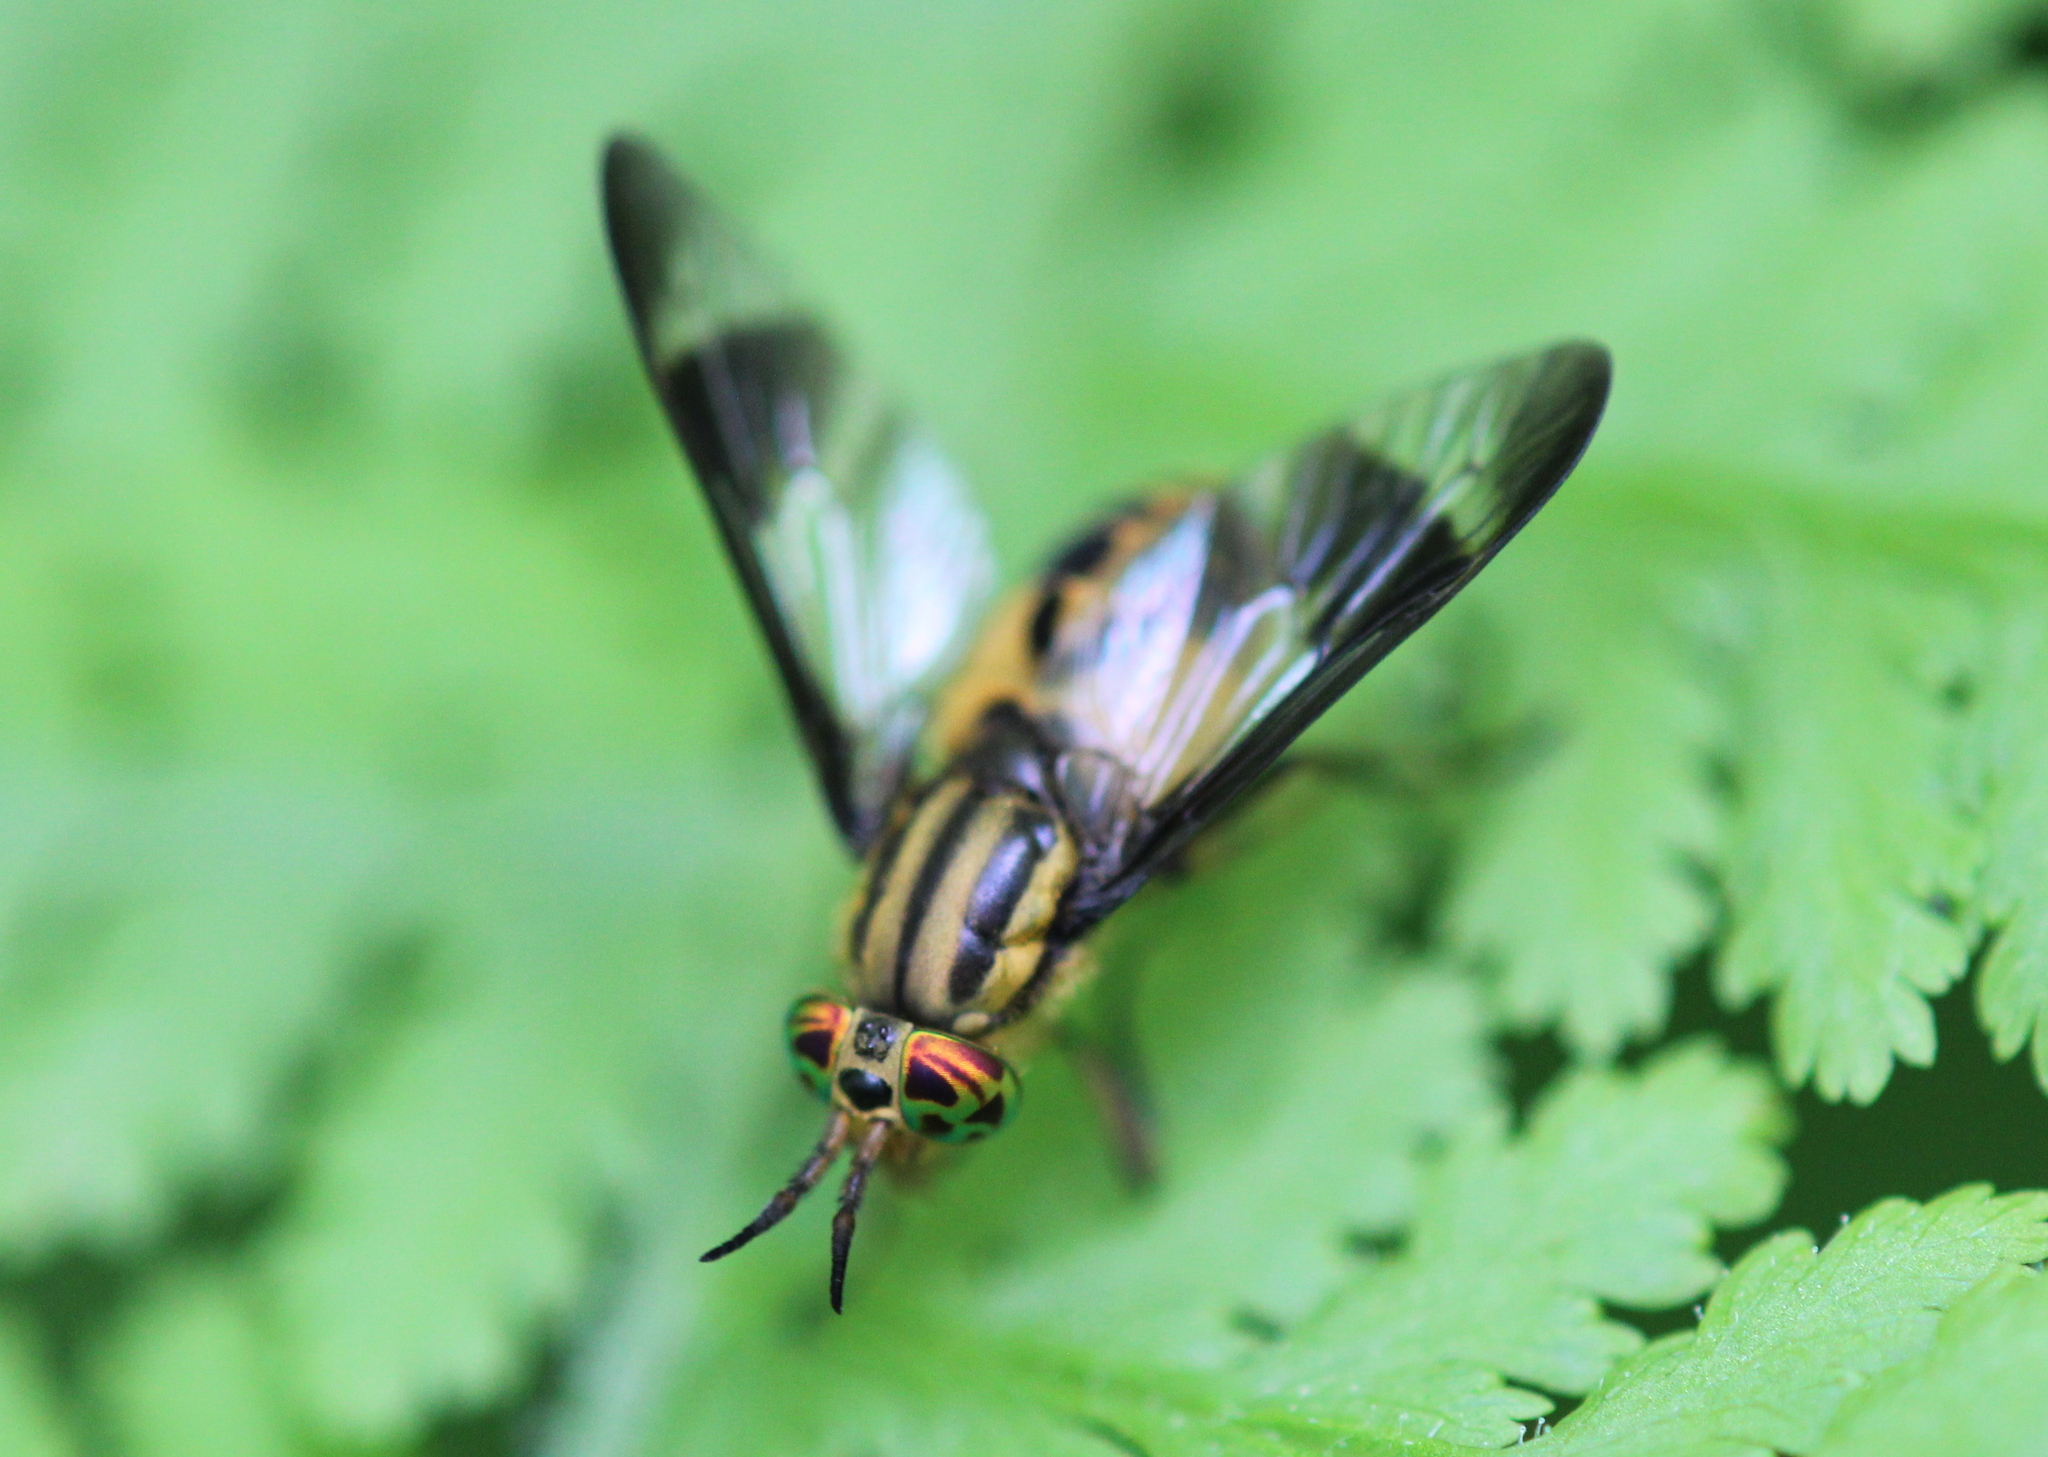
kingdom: Animalia
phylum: Arthropoda
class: Insecta
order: Diptera
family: Tabanidae
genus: Chrysops
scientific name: Chrysops geminatus
